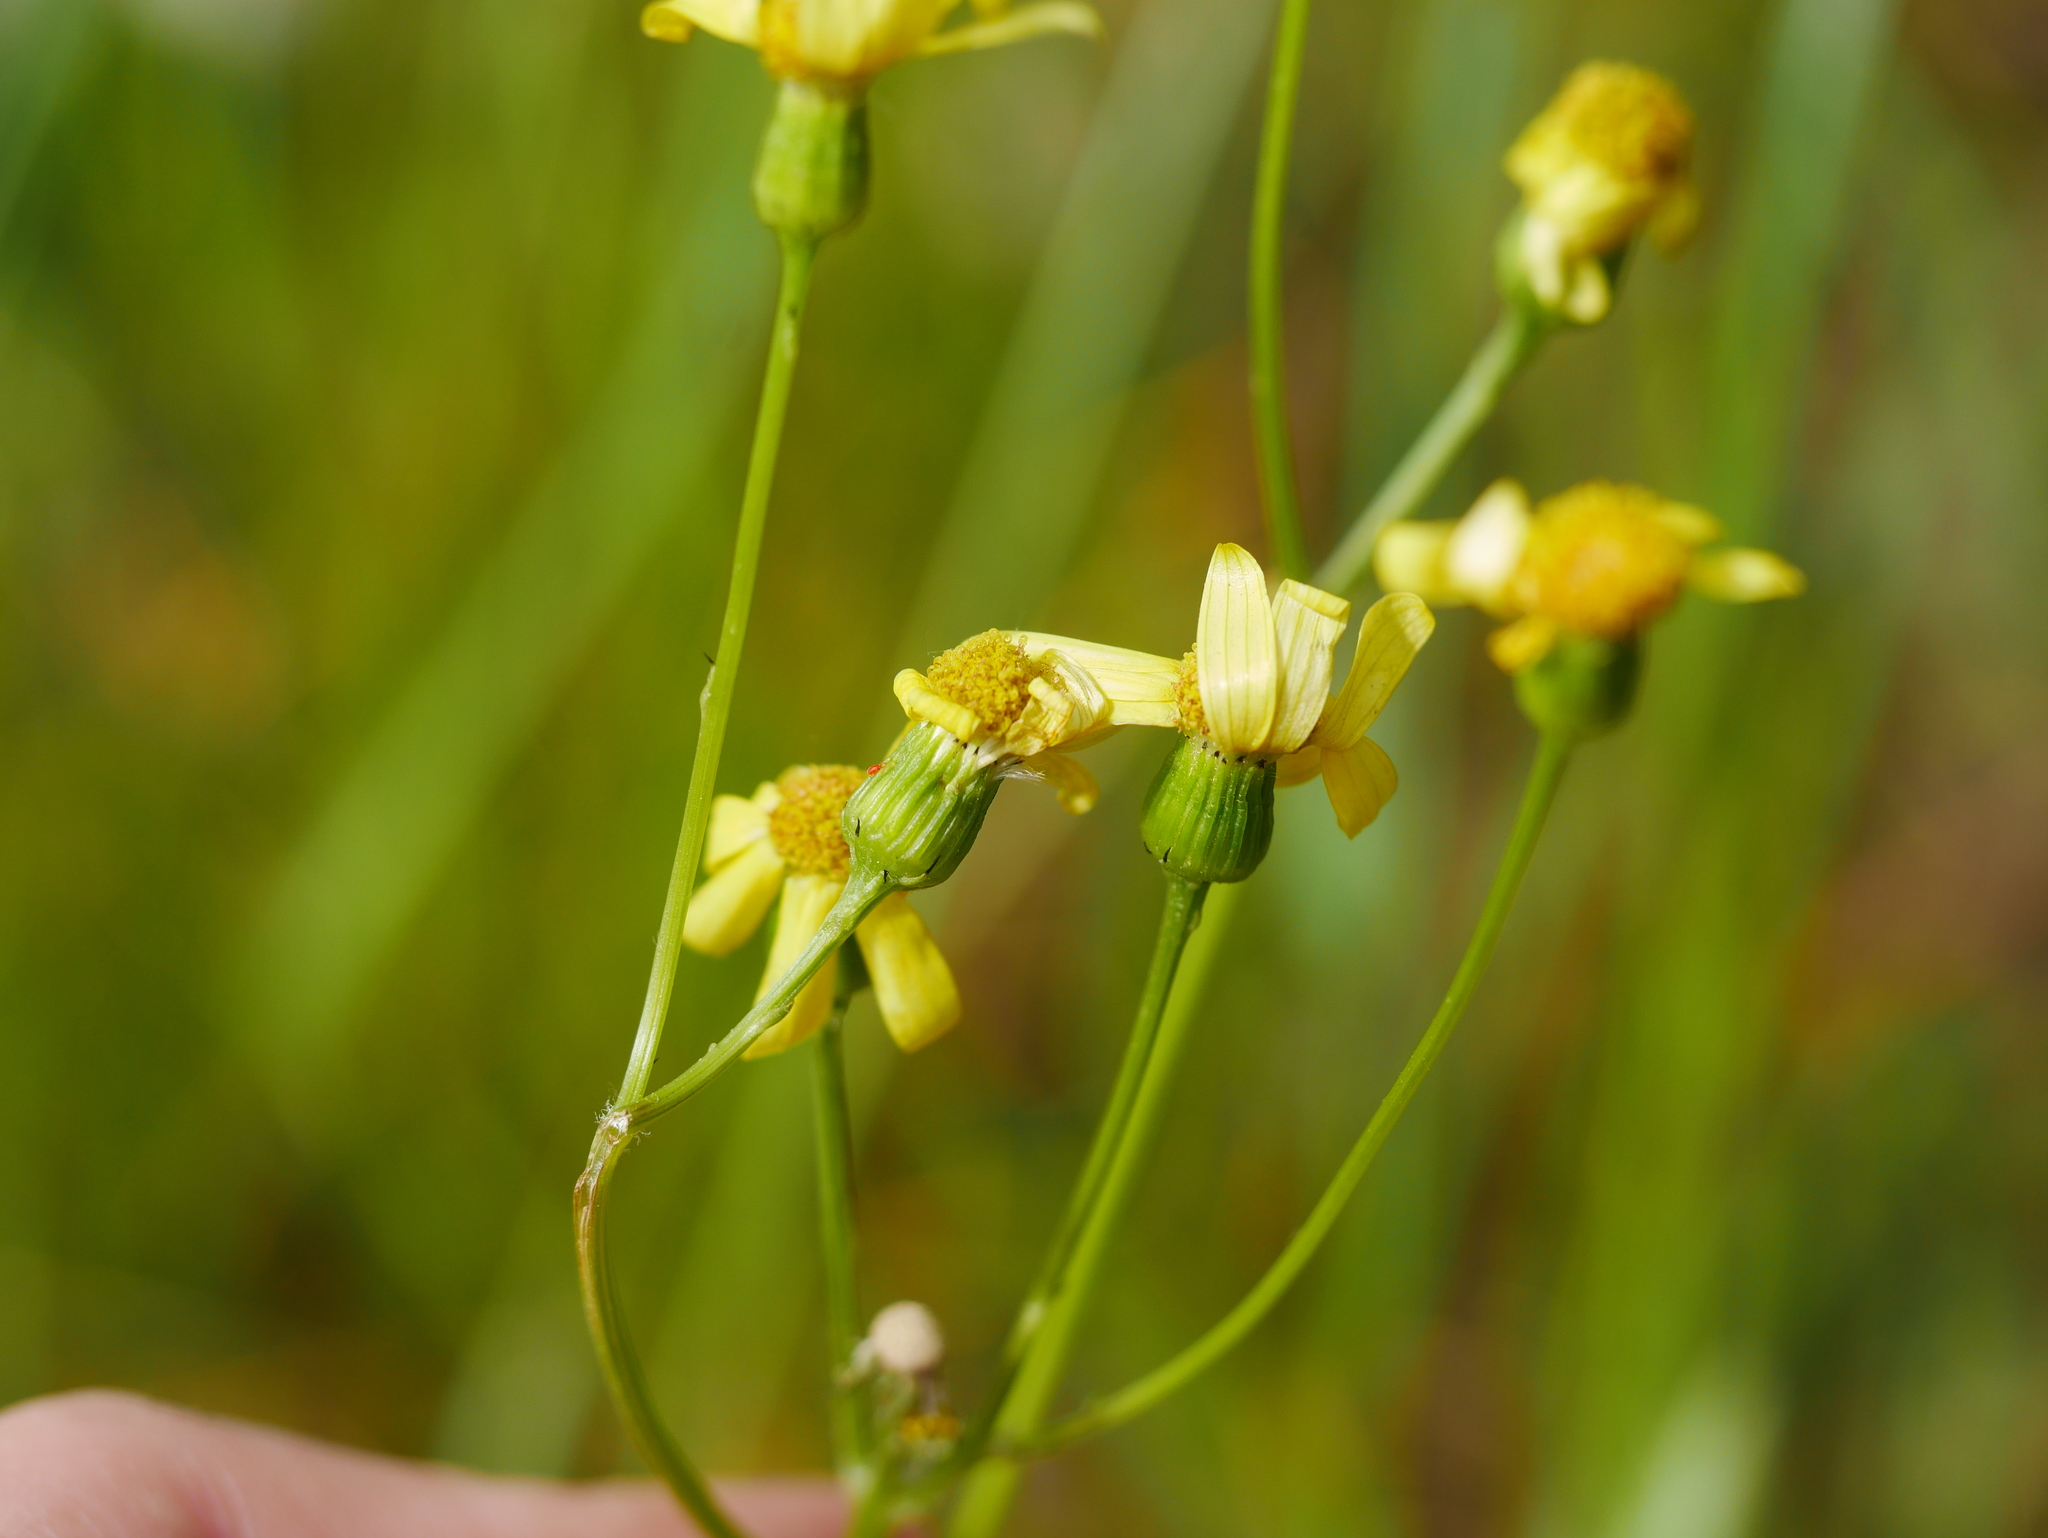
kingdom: Plantae
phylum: Tracheophyta
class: Magnoliopsida
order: Asterales
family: Asteraceae
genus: Senecio
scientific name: Senecio vernalis
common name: Eastern groundsel
